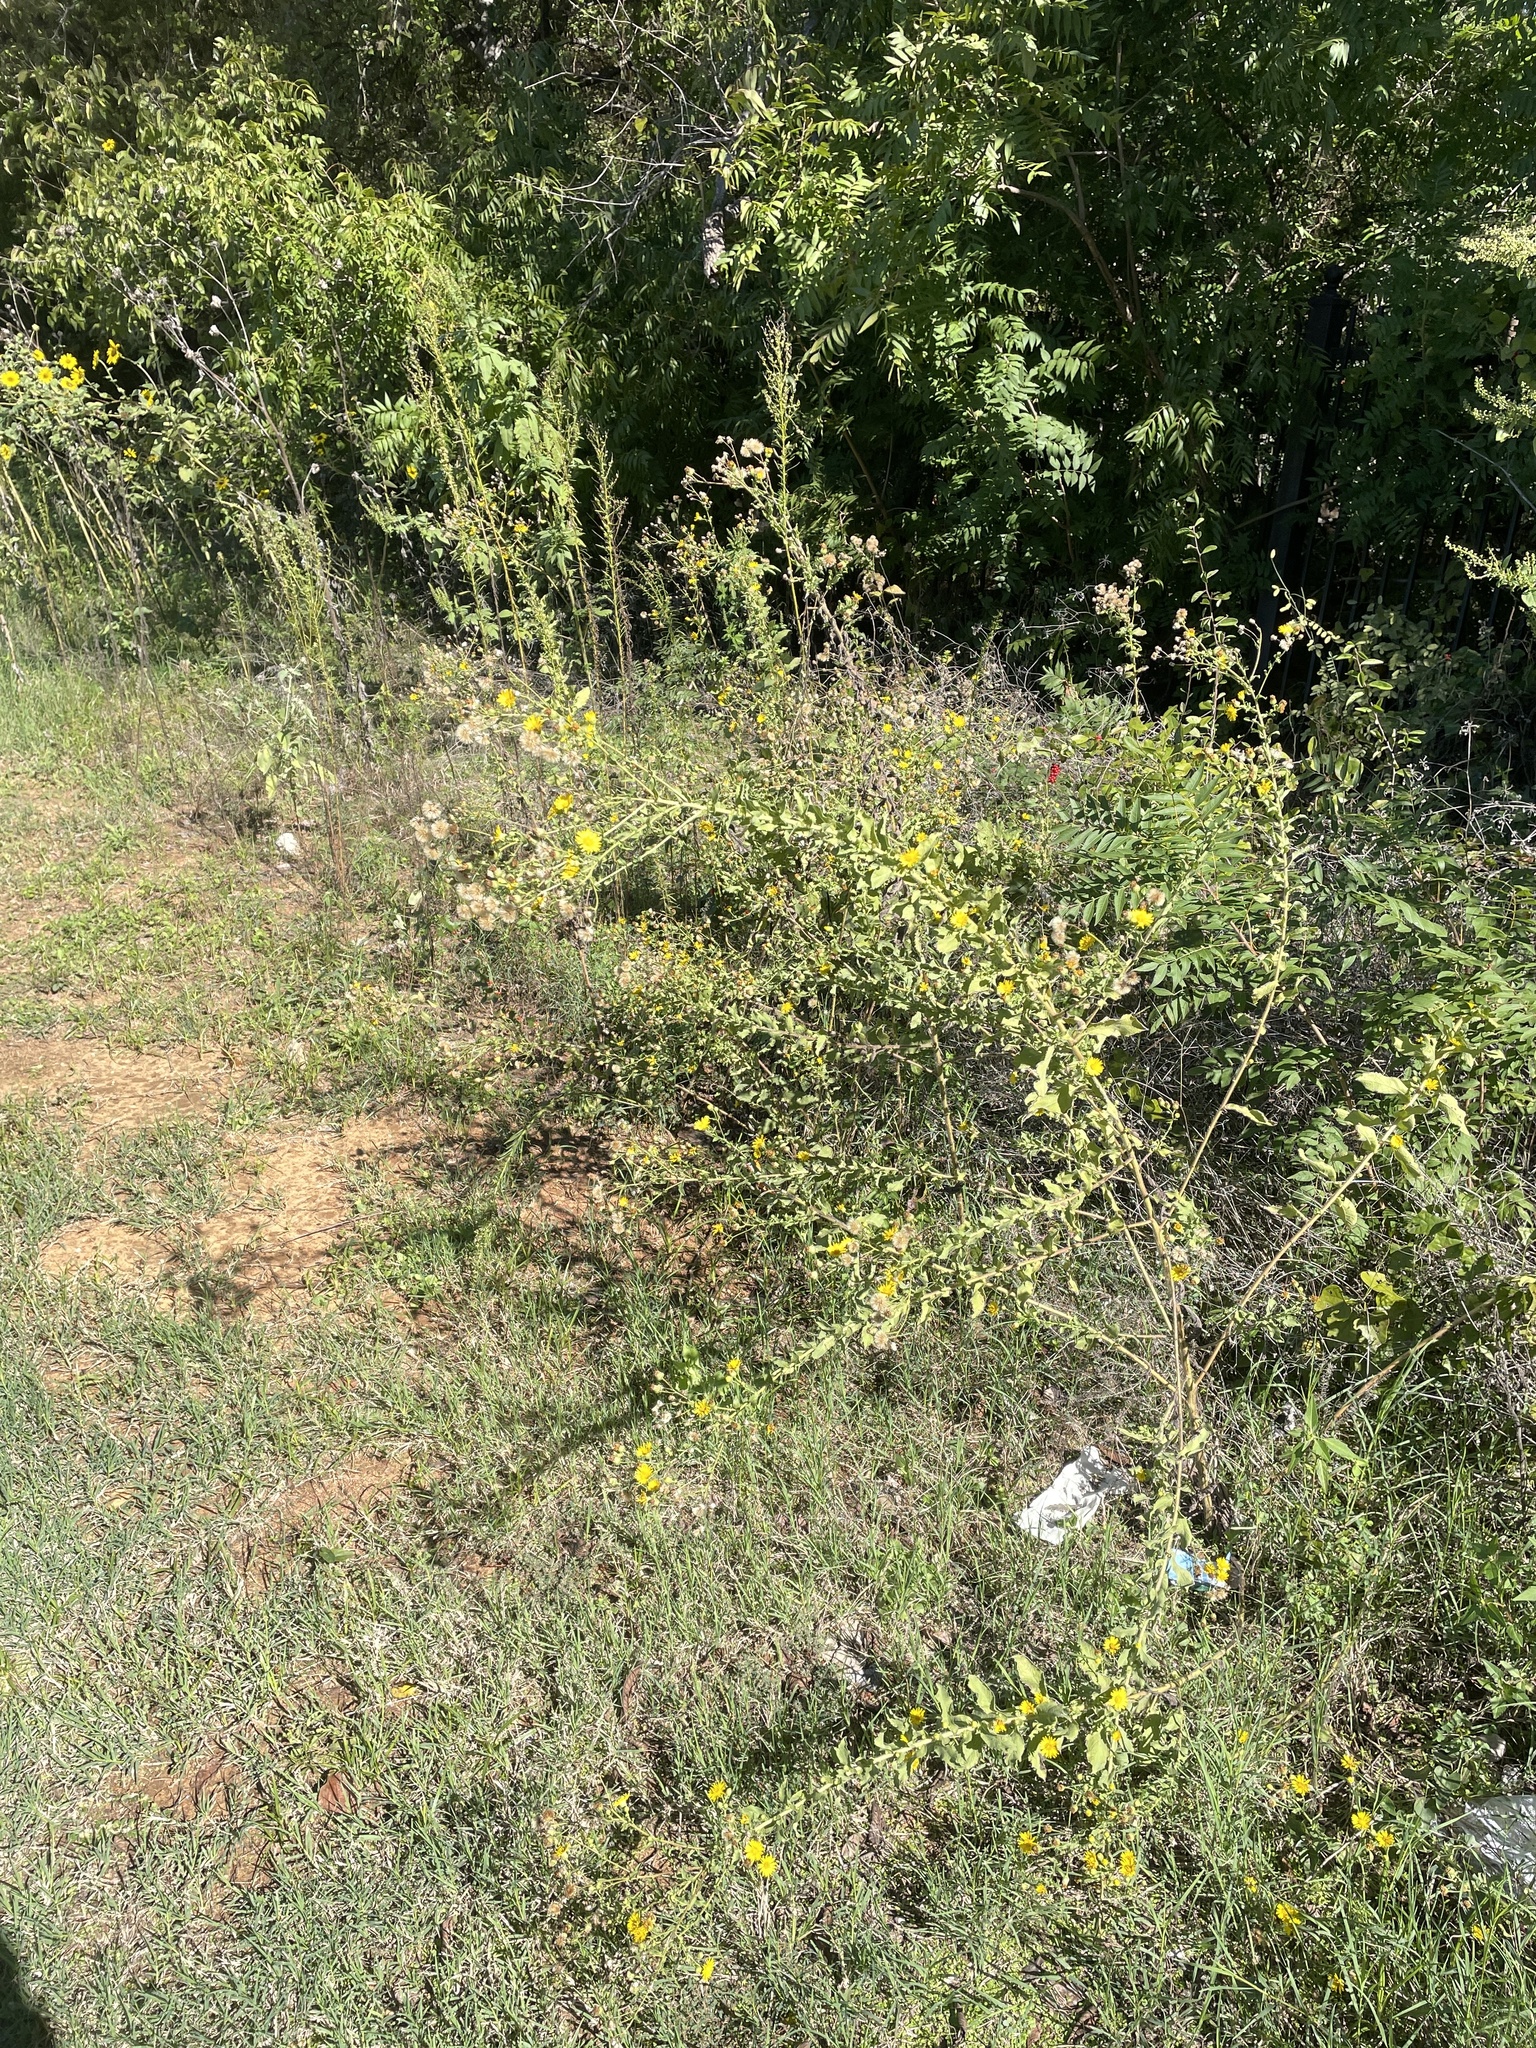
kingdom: Plantae
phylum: Tracheophyta
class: Magnoliopsida
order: Asterales
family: Asteraceae
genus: Heterotheca
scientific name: Heterotheca subaxillaris
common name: Camphorweed
